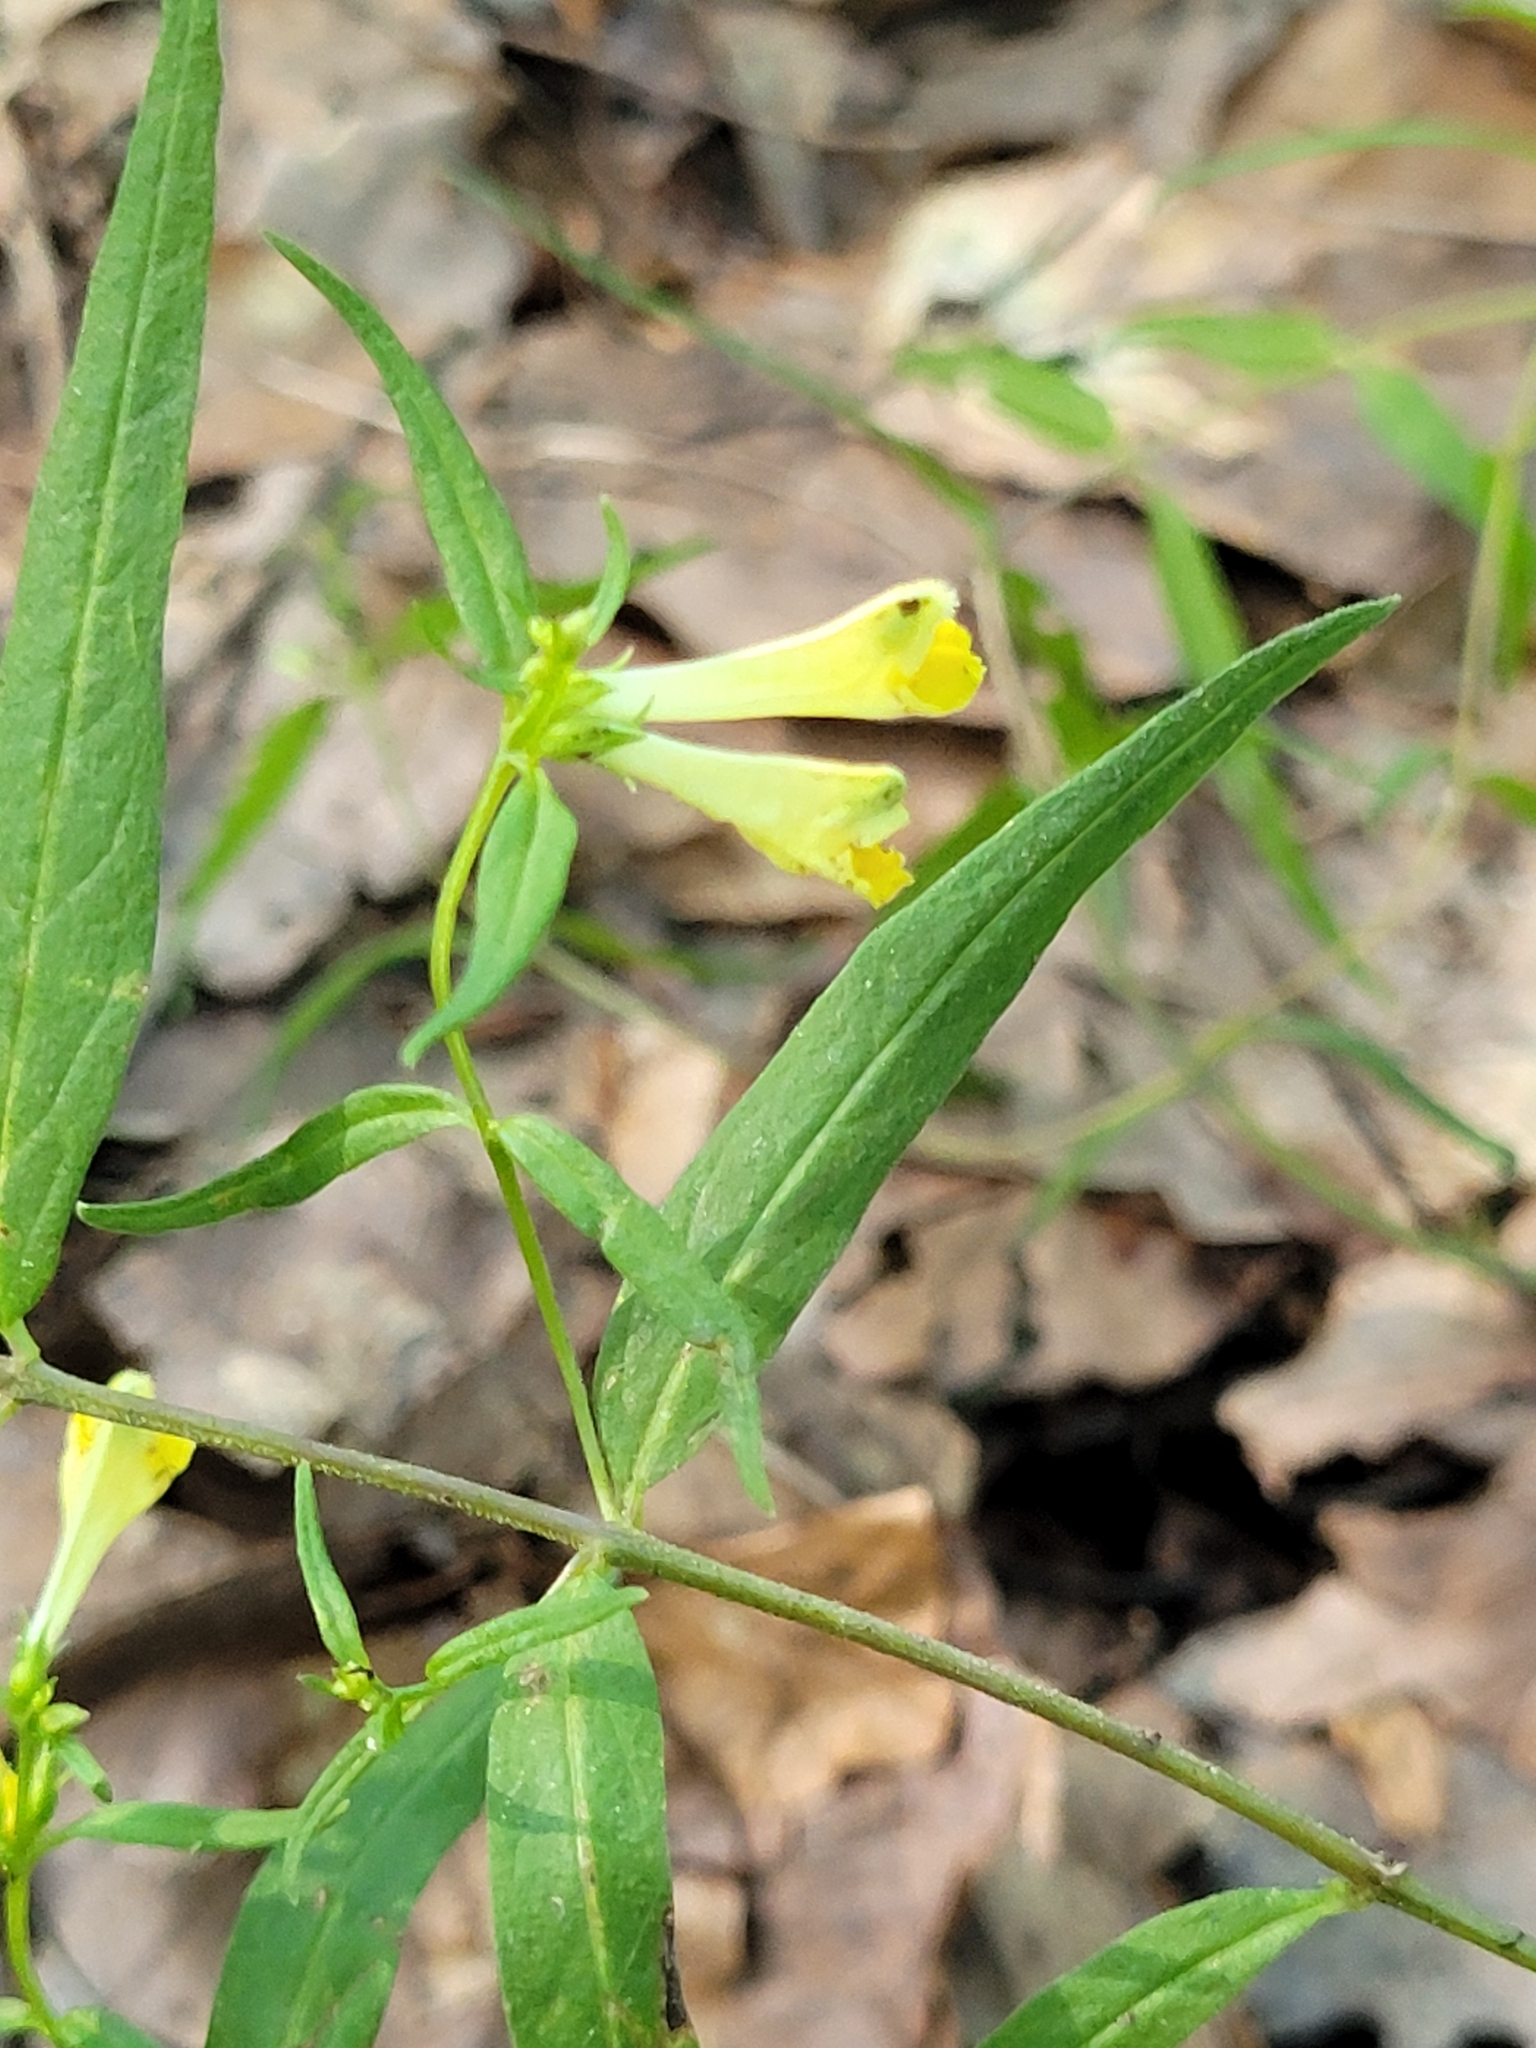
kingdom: Plantae
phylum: Tracheophyta
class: Magnoliopsida
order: Lamiales
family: Orobanchaceae
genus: Melampyrum
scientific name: Melampyrum pratense
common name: Common cow-wheat
